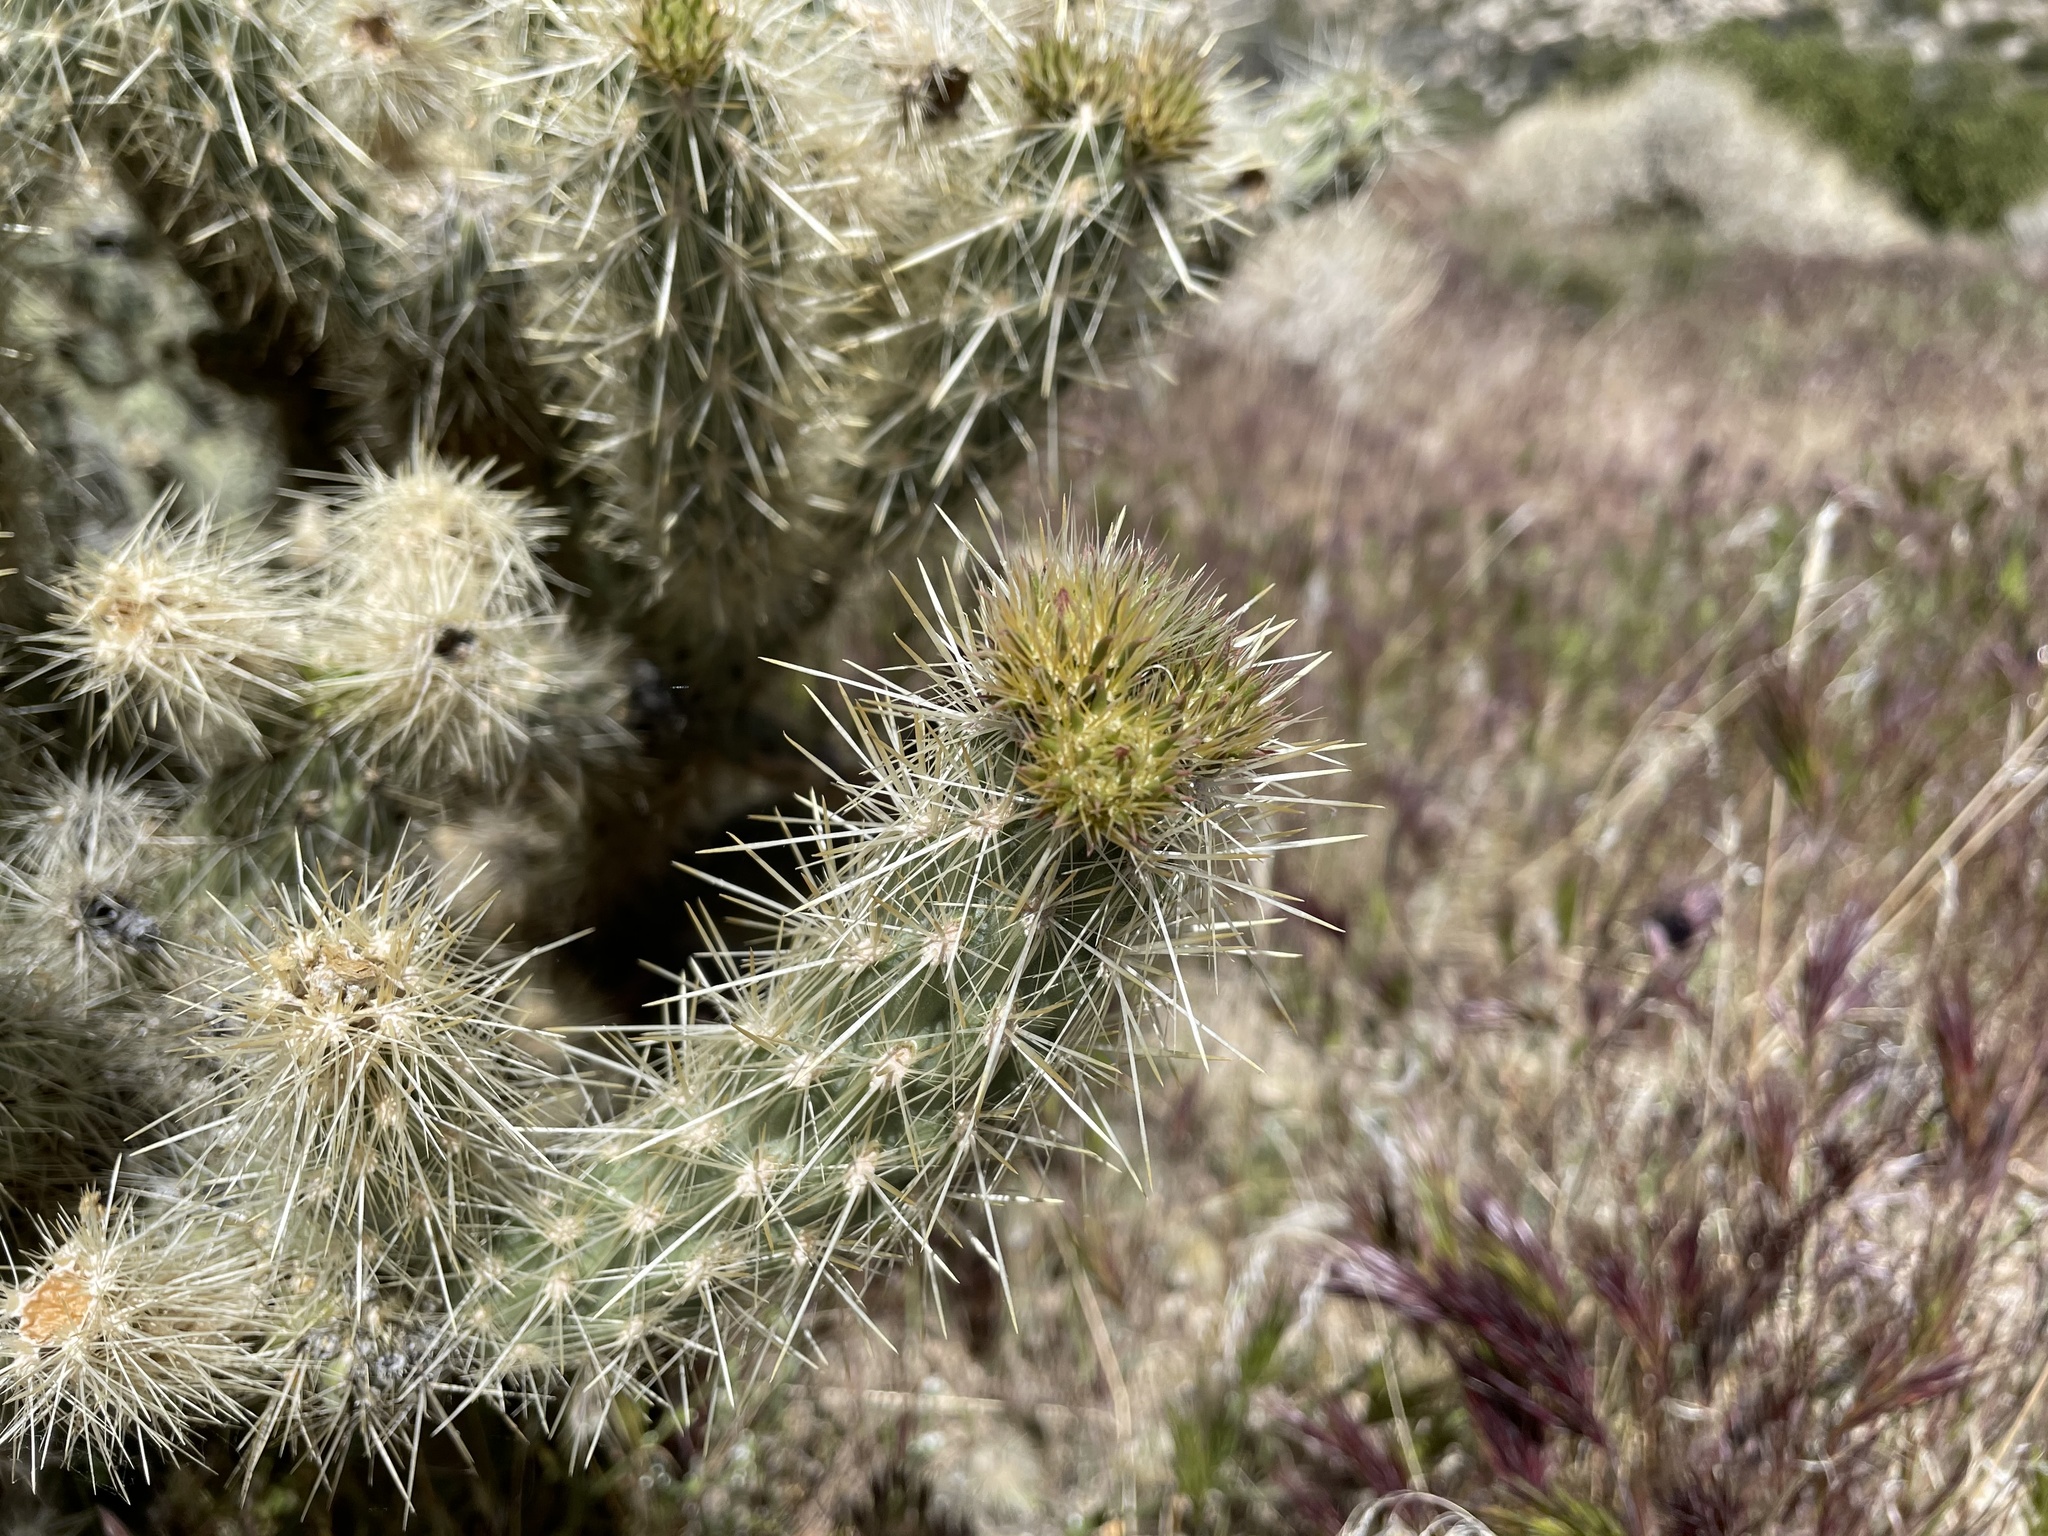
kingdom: Plantae
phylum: Tracheophyta
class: Magnoliopsida
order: Caryophyllales
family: Cactaceae
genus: Cylindropuntia
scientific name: Cylindropuntia ganderi
